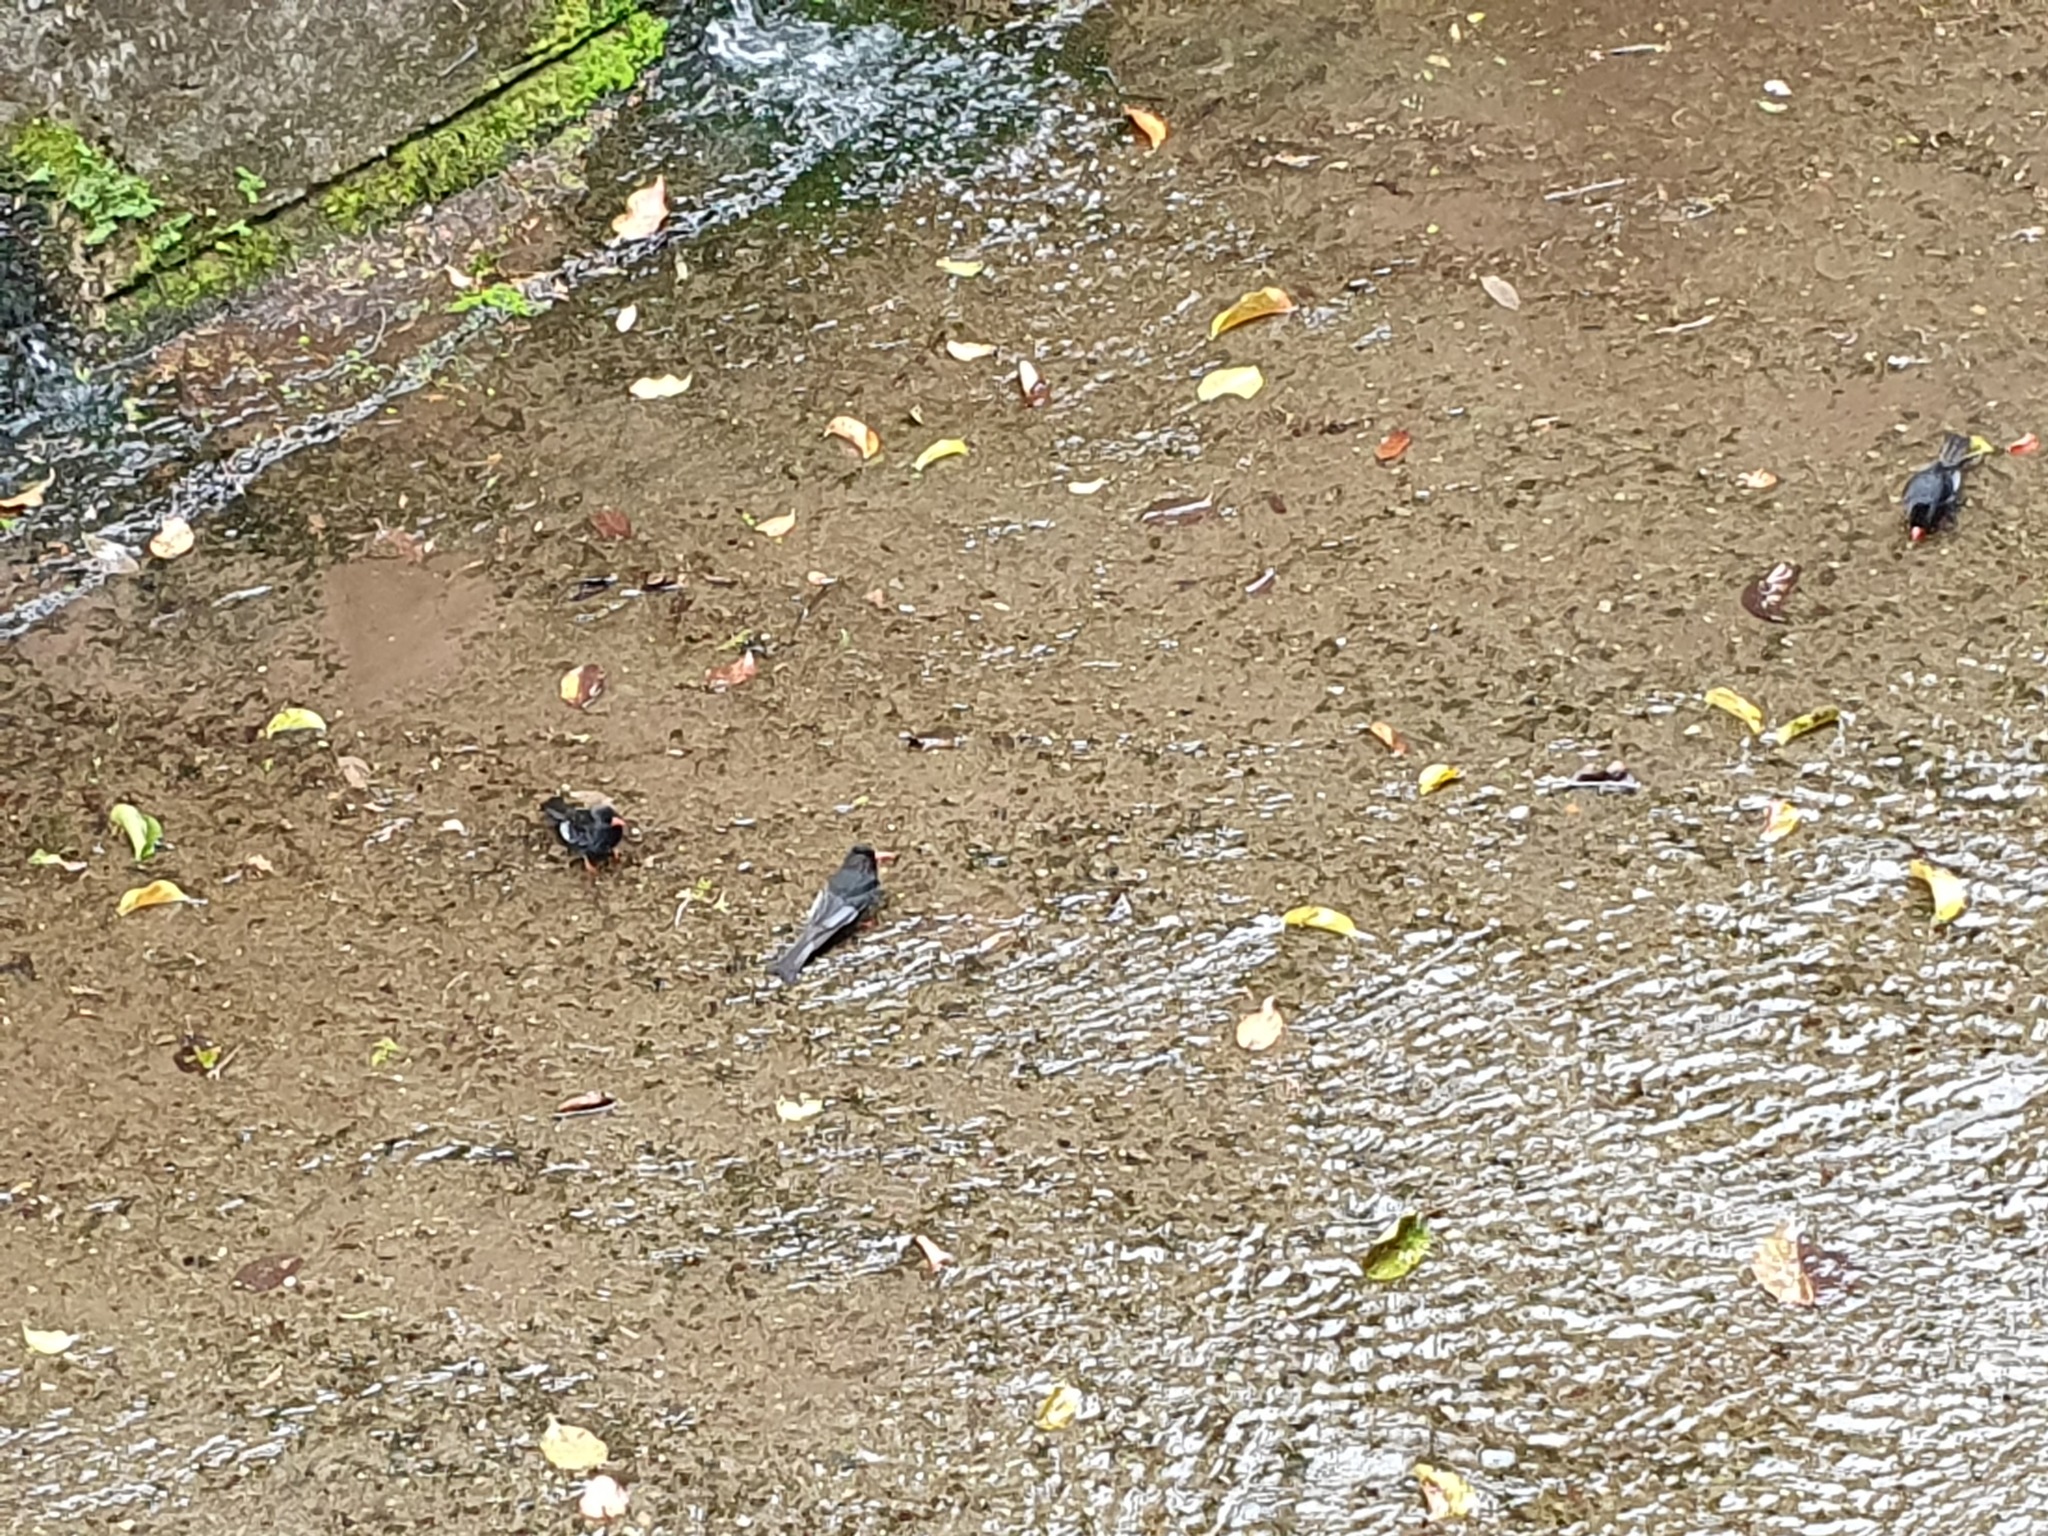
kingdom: Animalia
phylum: Chordata
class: Aves
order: Passeriformes
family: Pycnonotidae
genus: Hypsipetes
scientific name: Hypsipetes leucocephalus
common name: Black bulbul
